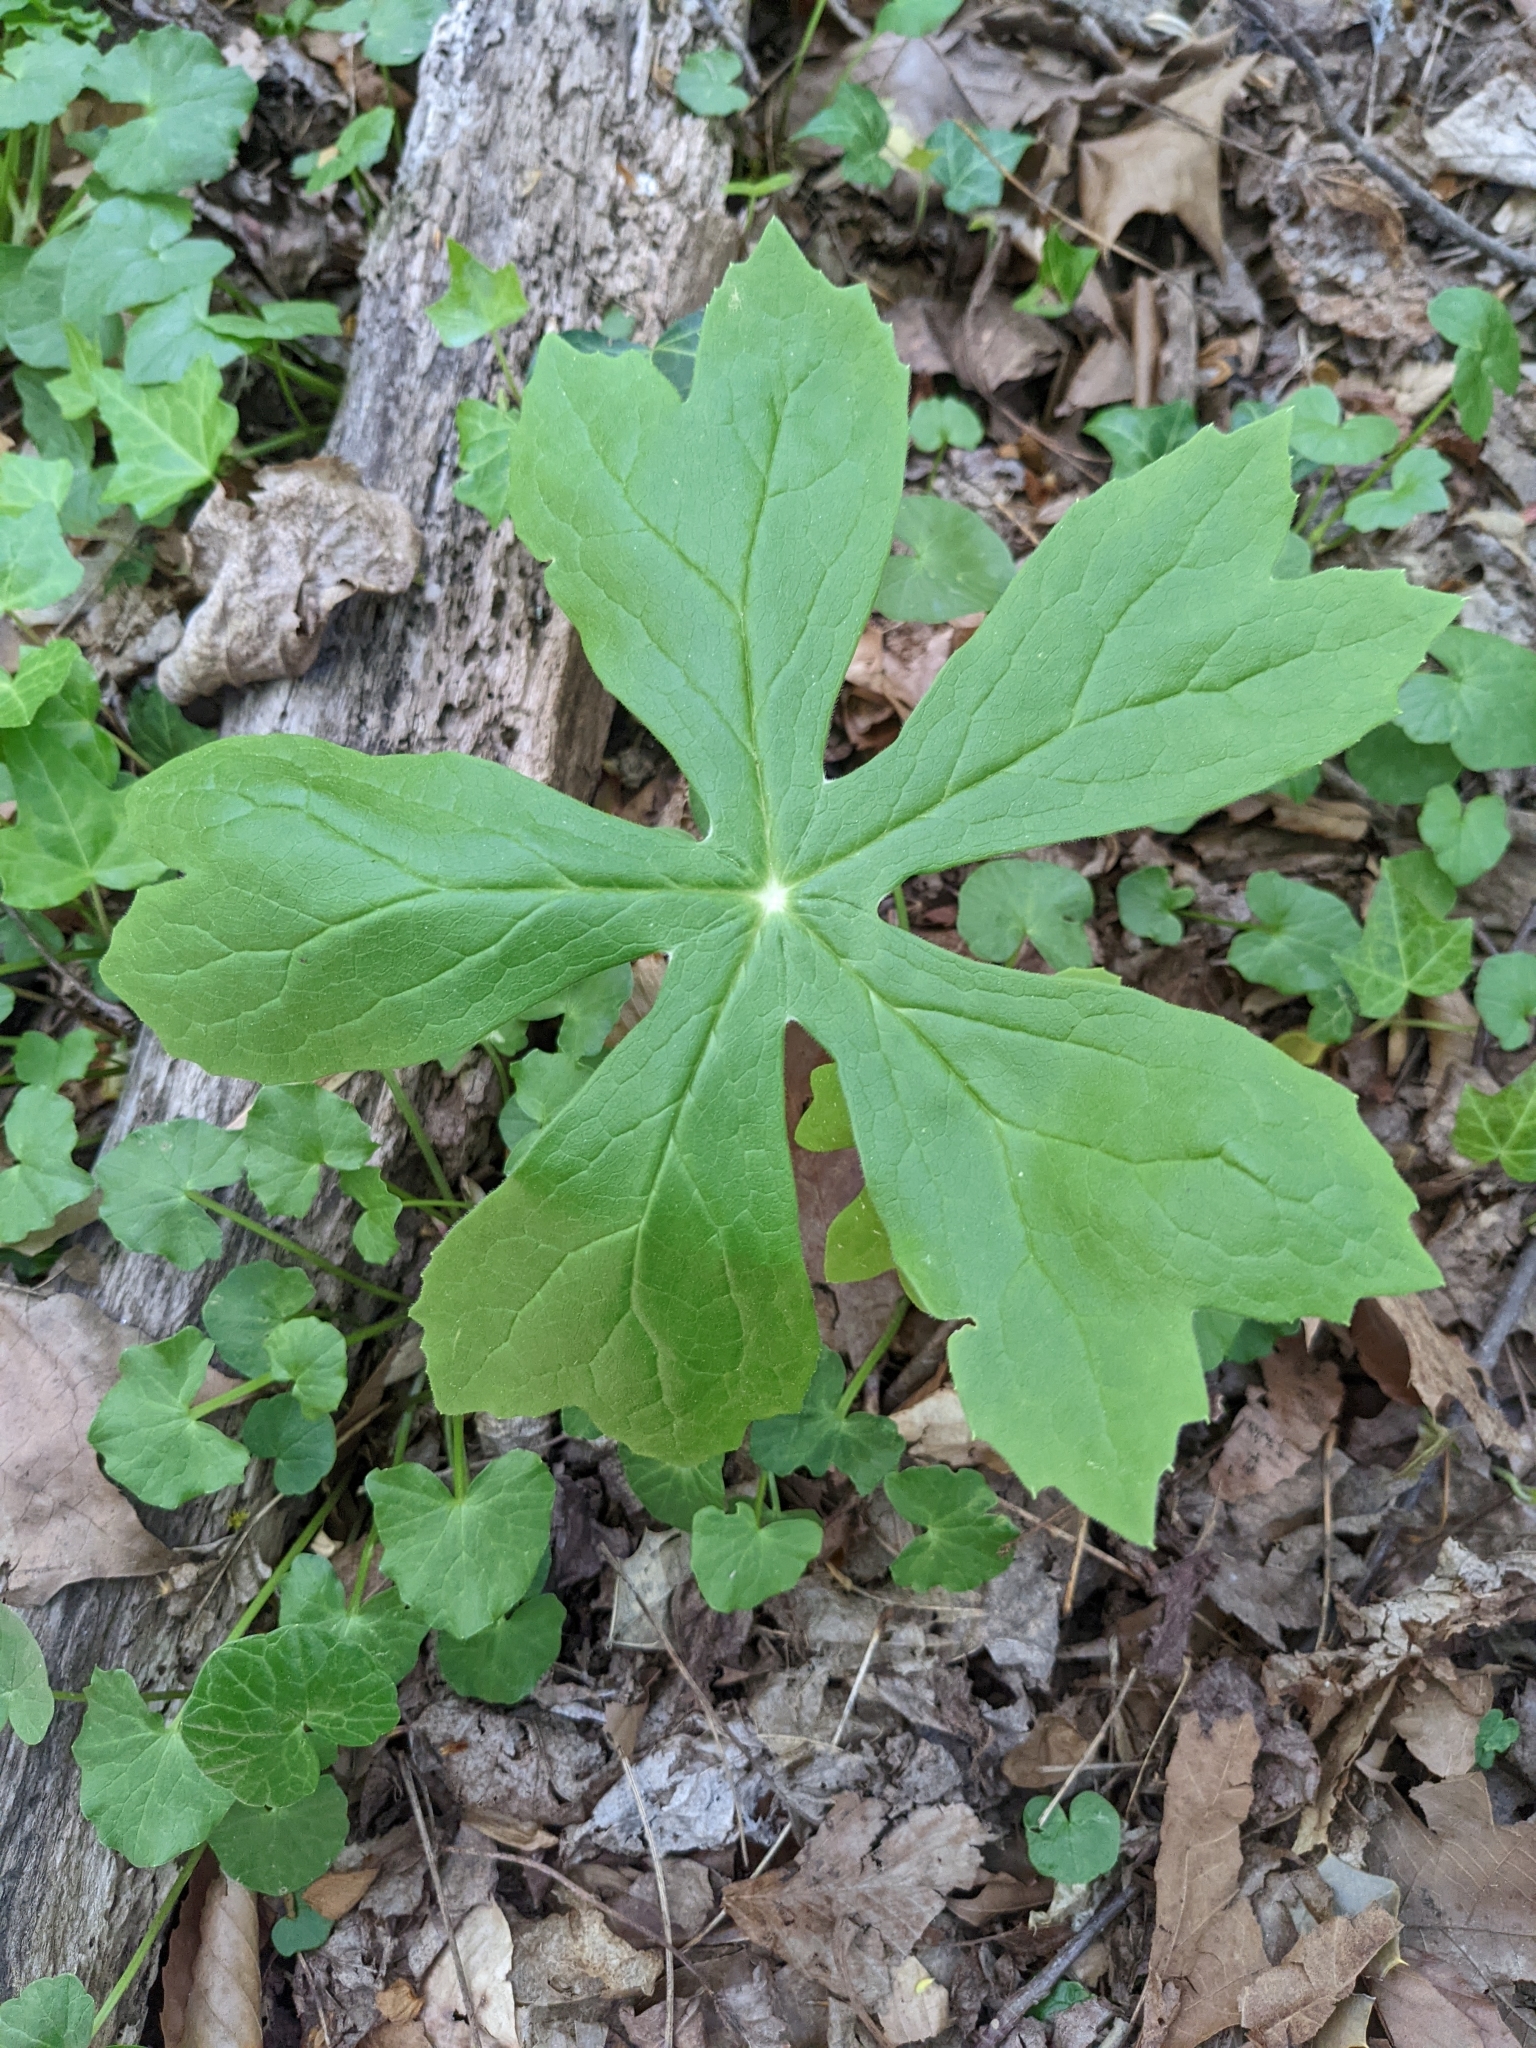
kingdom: Plantae
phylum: Tracheophyta
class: Magnoliopsida
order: Ranunculales
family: Berberidaceae
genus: Podophyllum
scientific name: Podophyllum peltatum
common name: Wild mandrake
